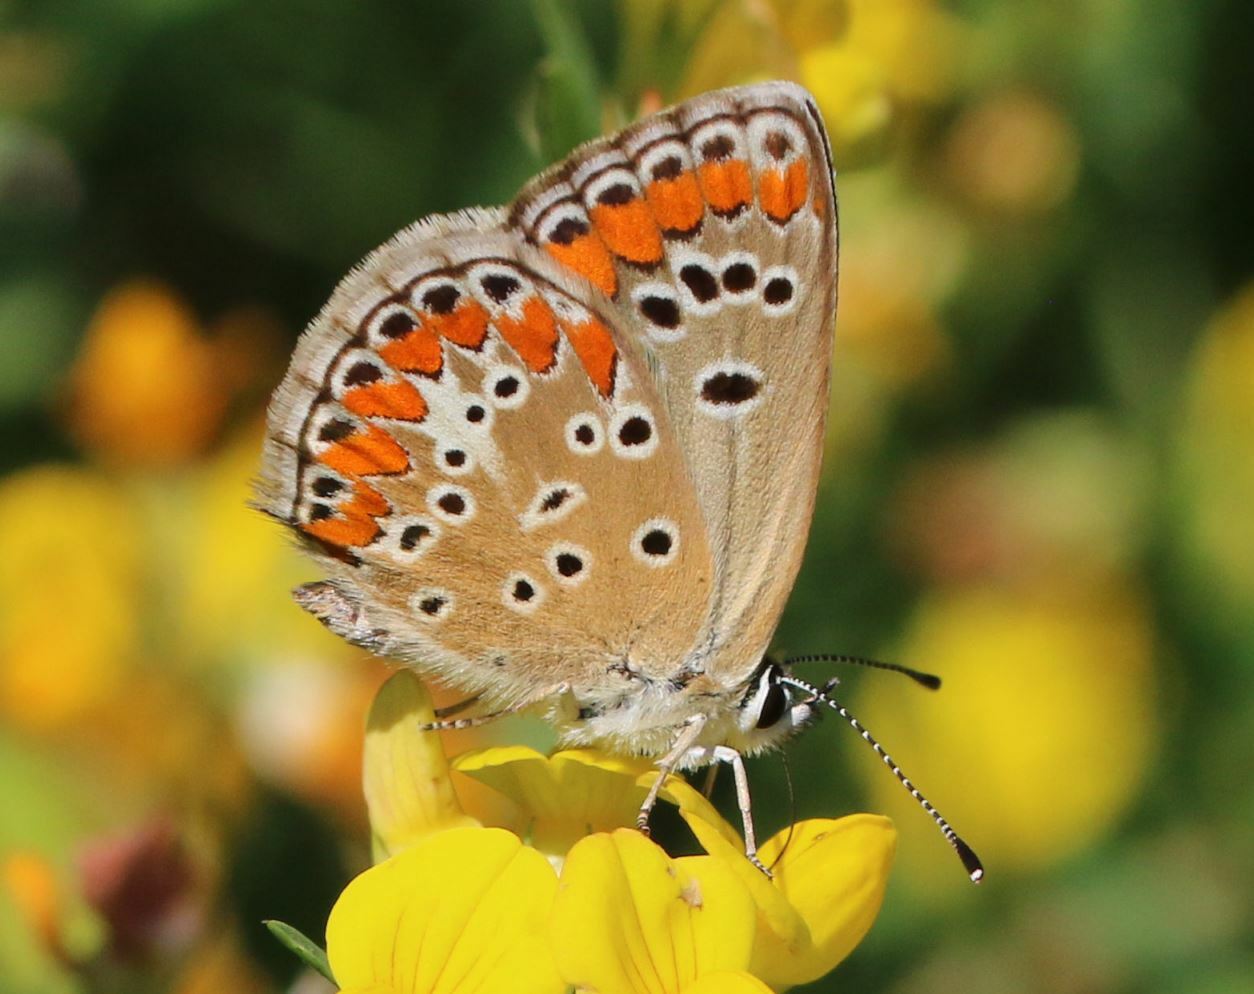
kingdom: Animalia
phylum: Arthropoda
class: Insecta
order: Lepidoptera
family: Lycaenidae
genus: Aricia
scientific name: Aricia agestis
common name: Brown argus
